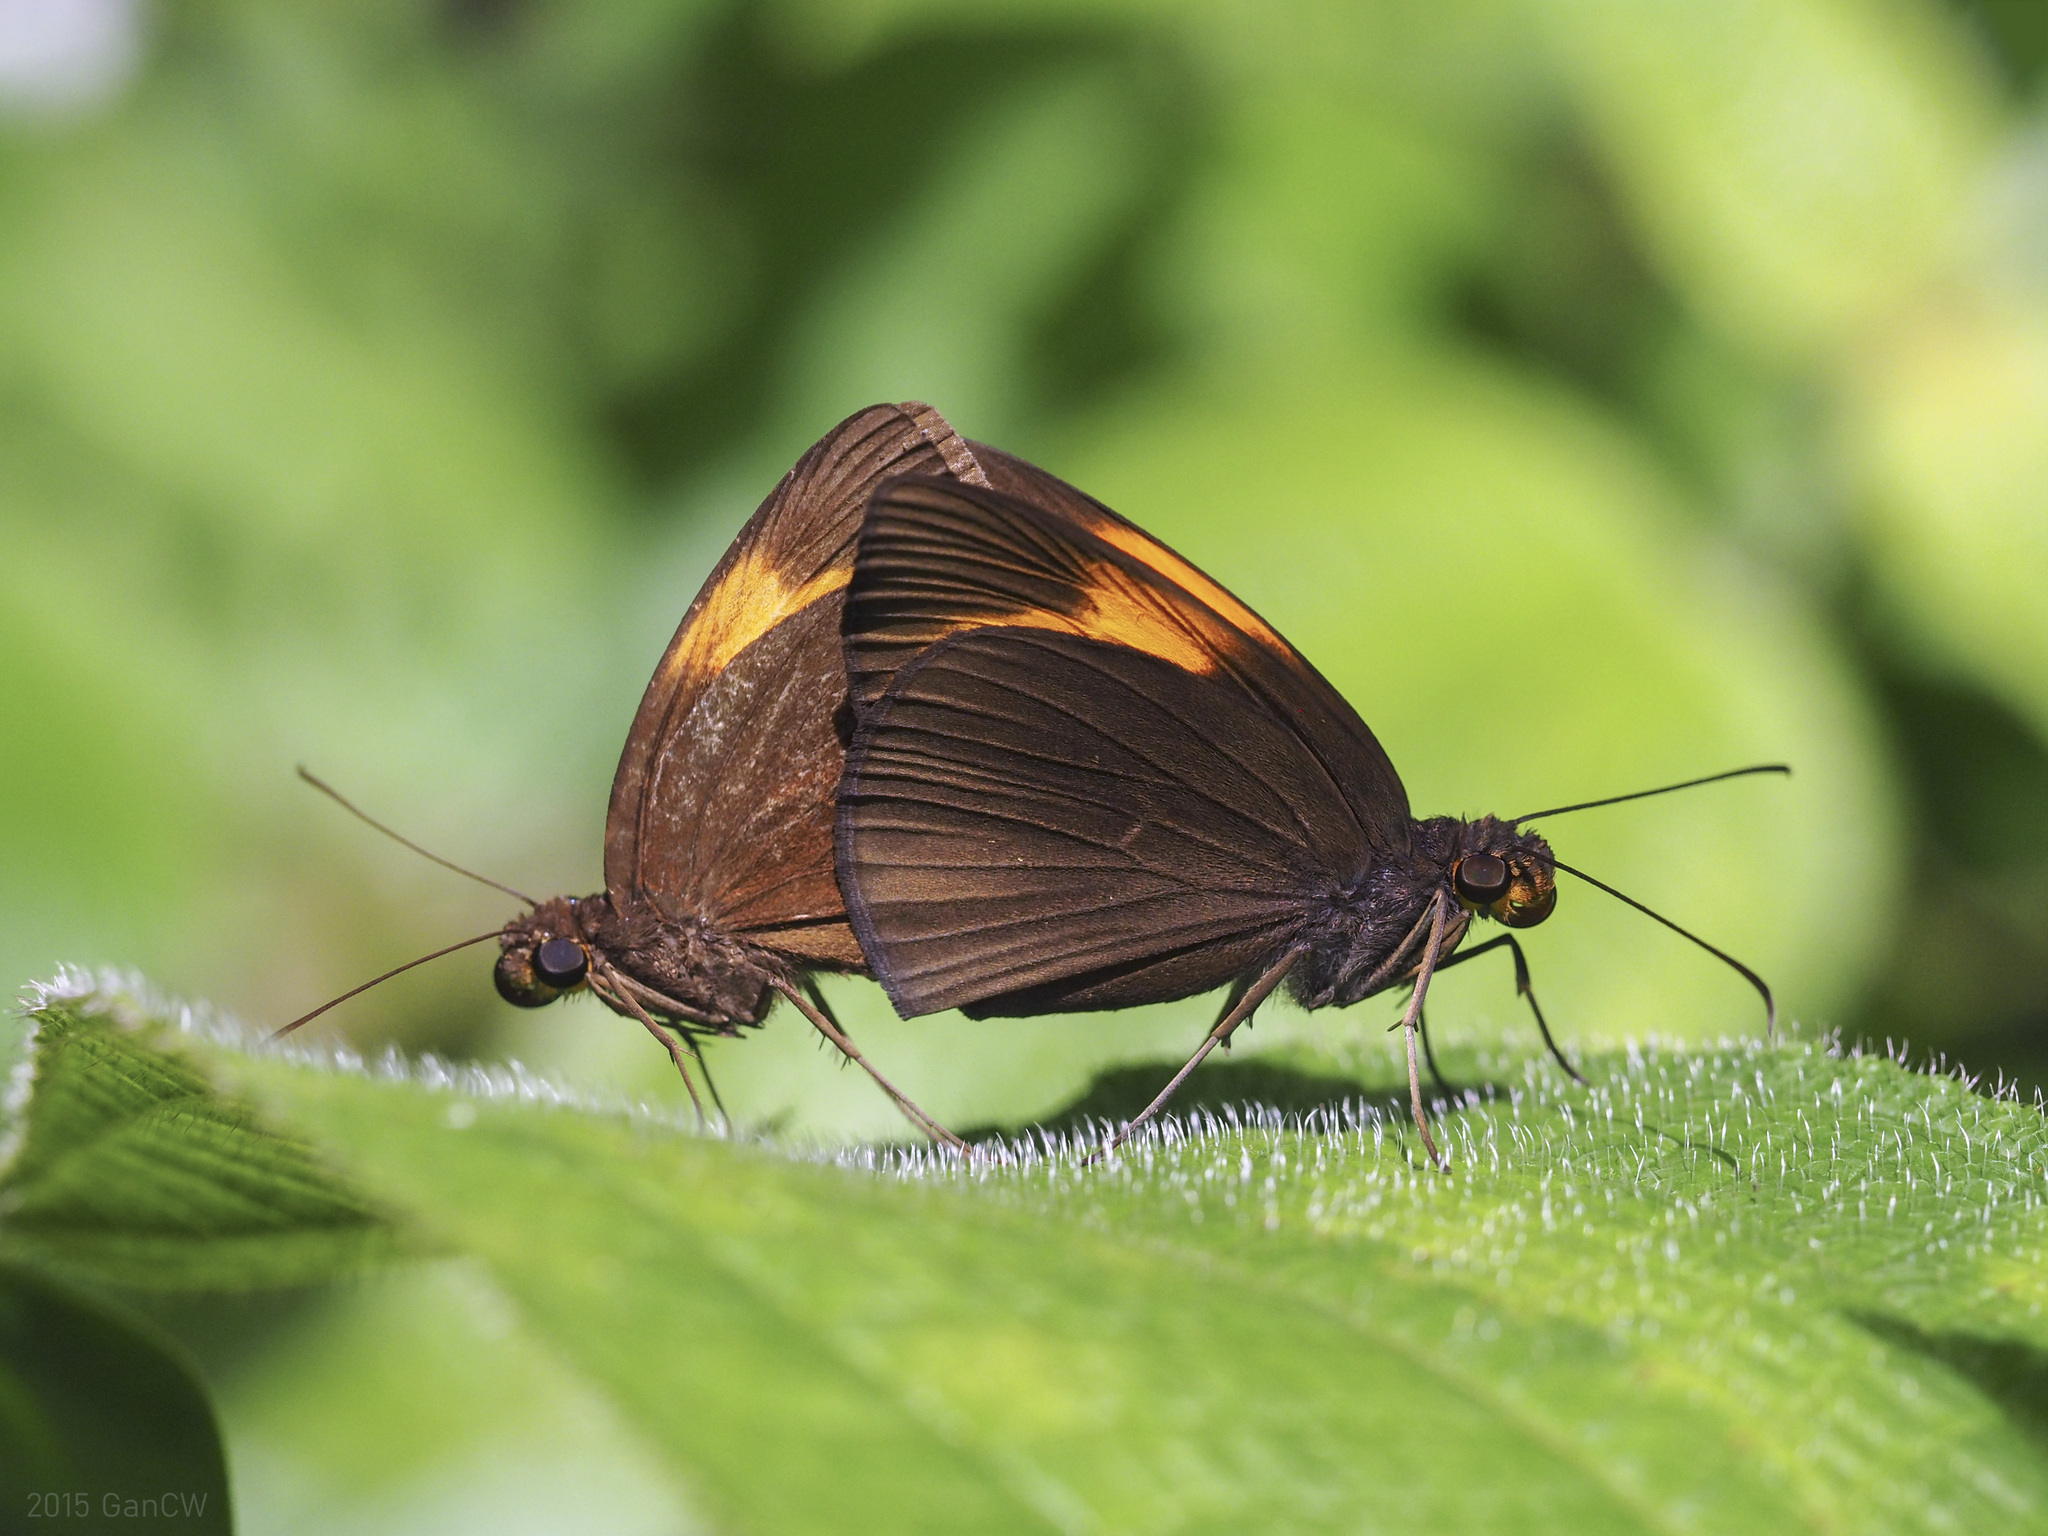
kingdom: Animalia
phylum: Arthropoda
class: Insecta
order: Lepidoptera
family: Hesperiidae
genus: Ancistroides
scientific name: Ancistroides armatus
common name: Red demon
